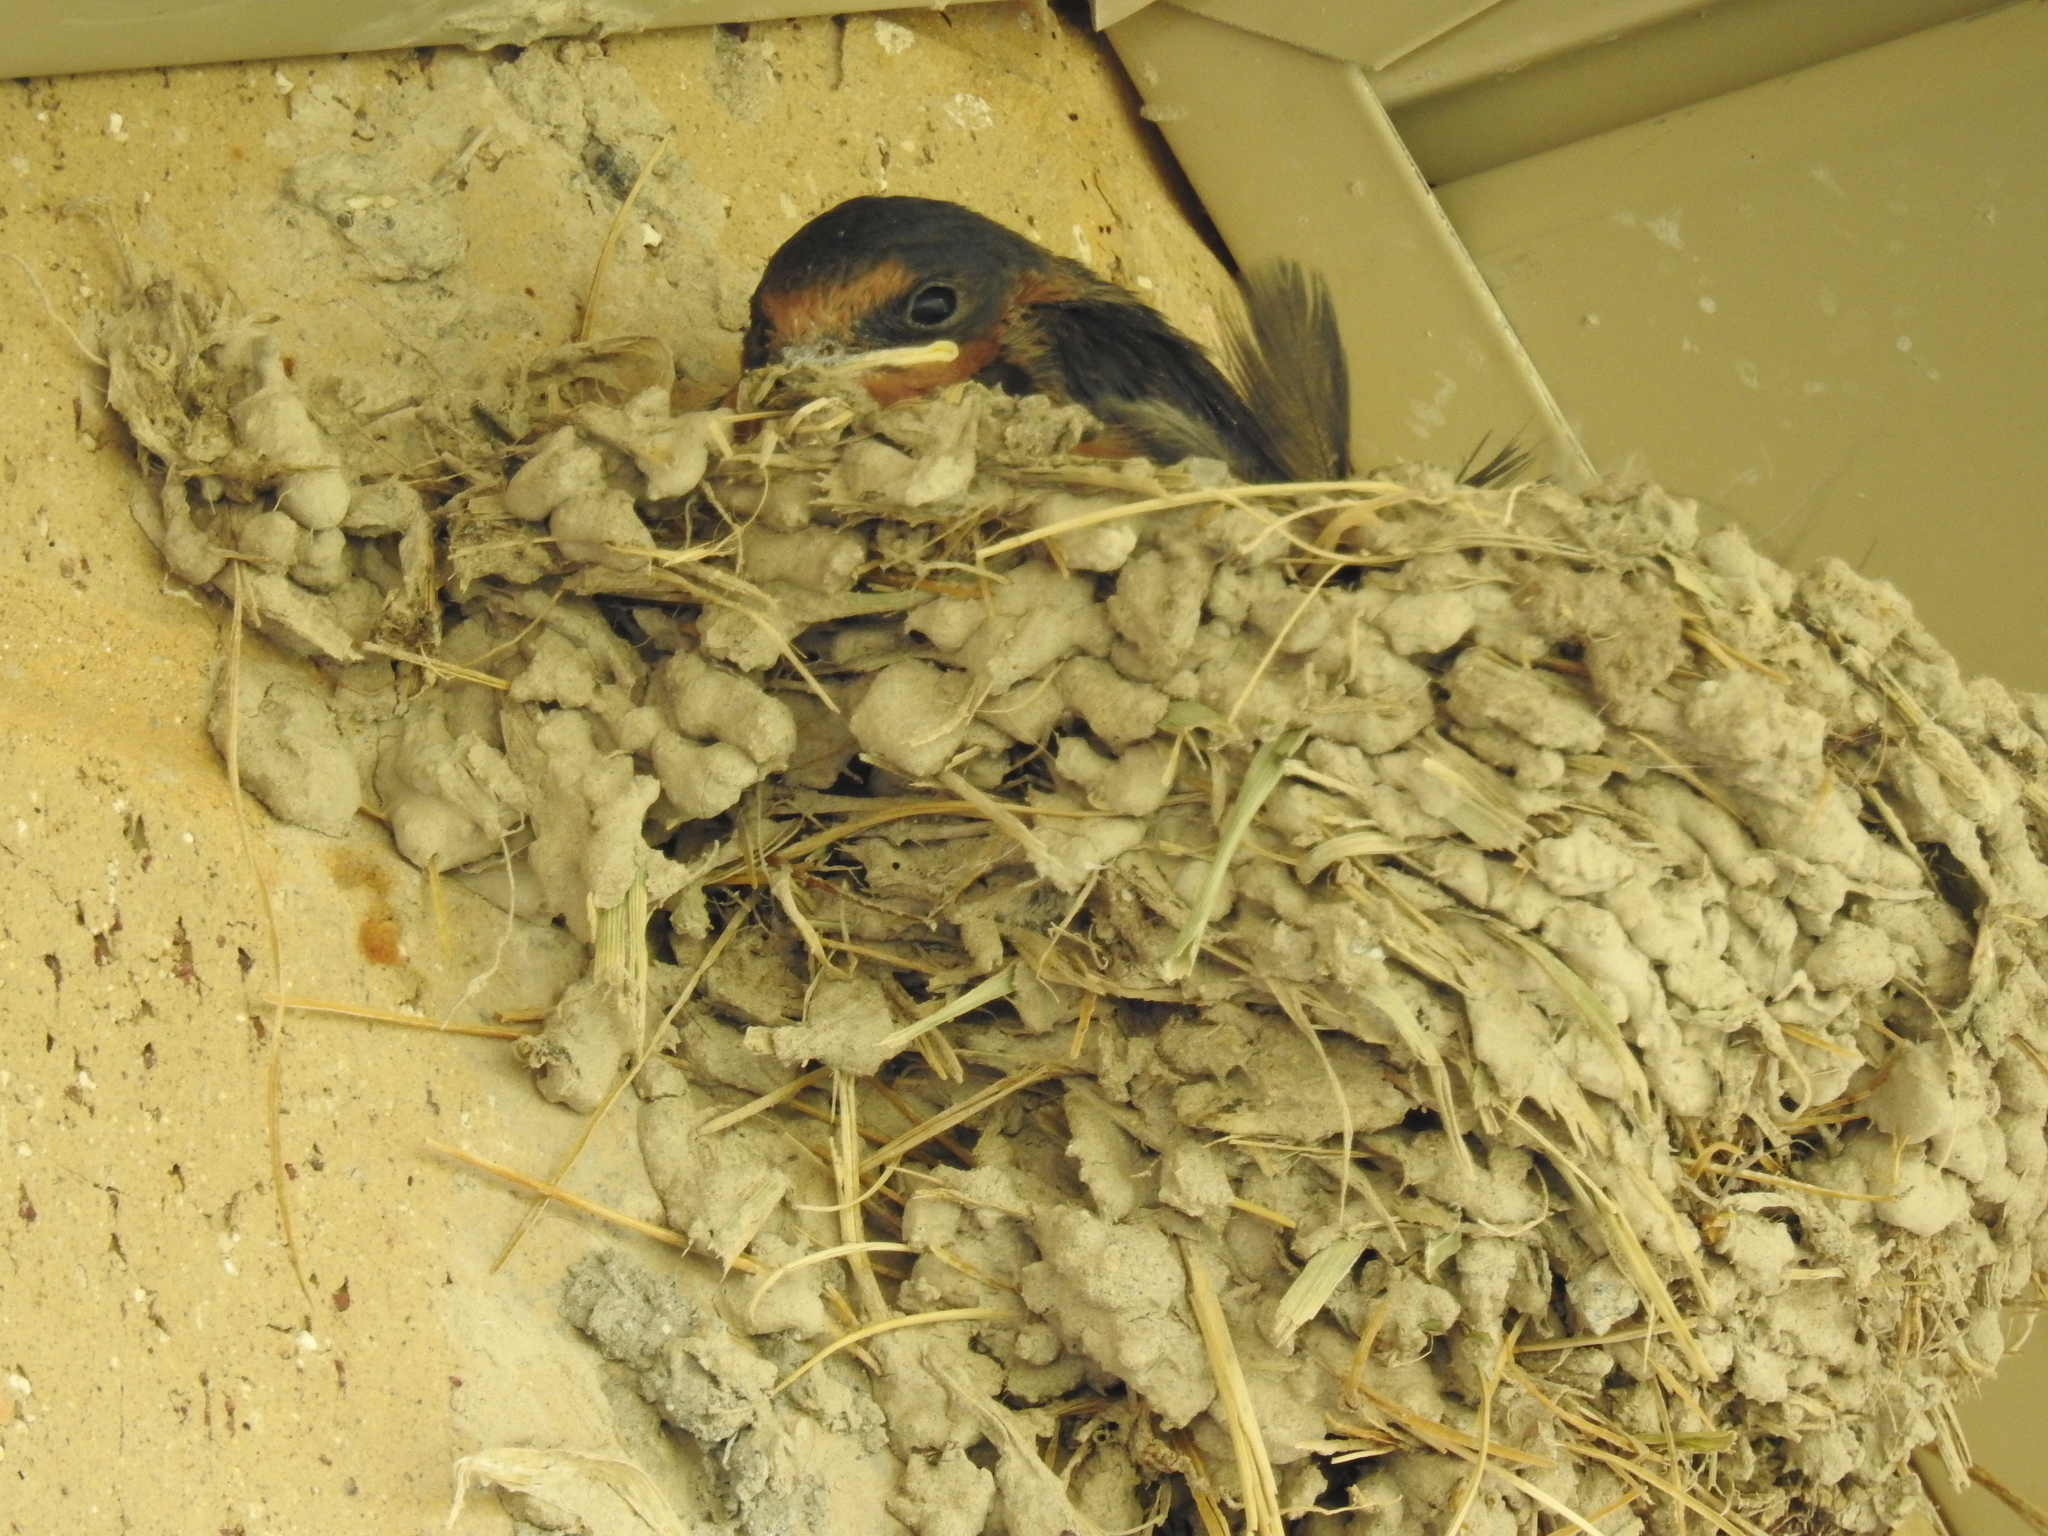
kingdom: Animalia
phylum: Chordata
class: Aves
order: Passeriformes
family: Hirundinidae
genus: Hirundo
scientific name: Hirundo rustica
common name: Barn swallow
